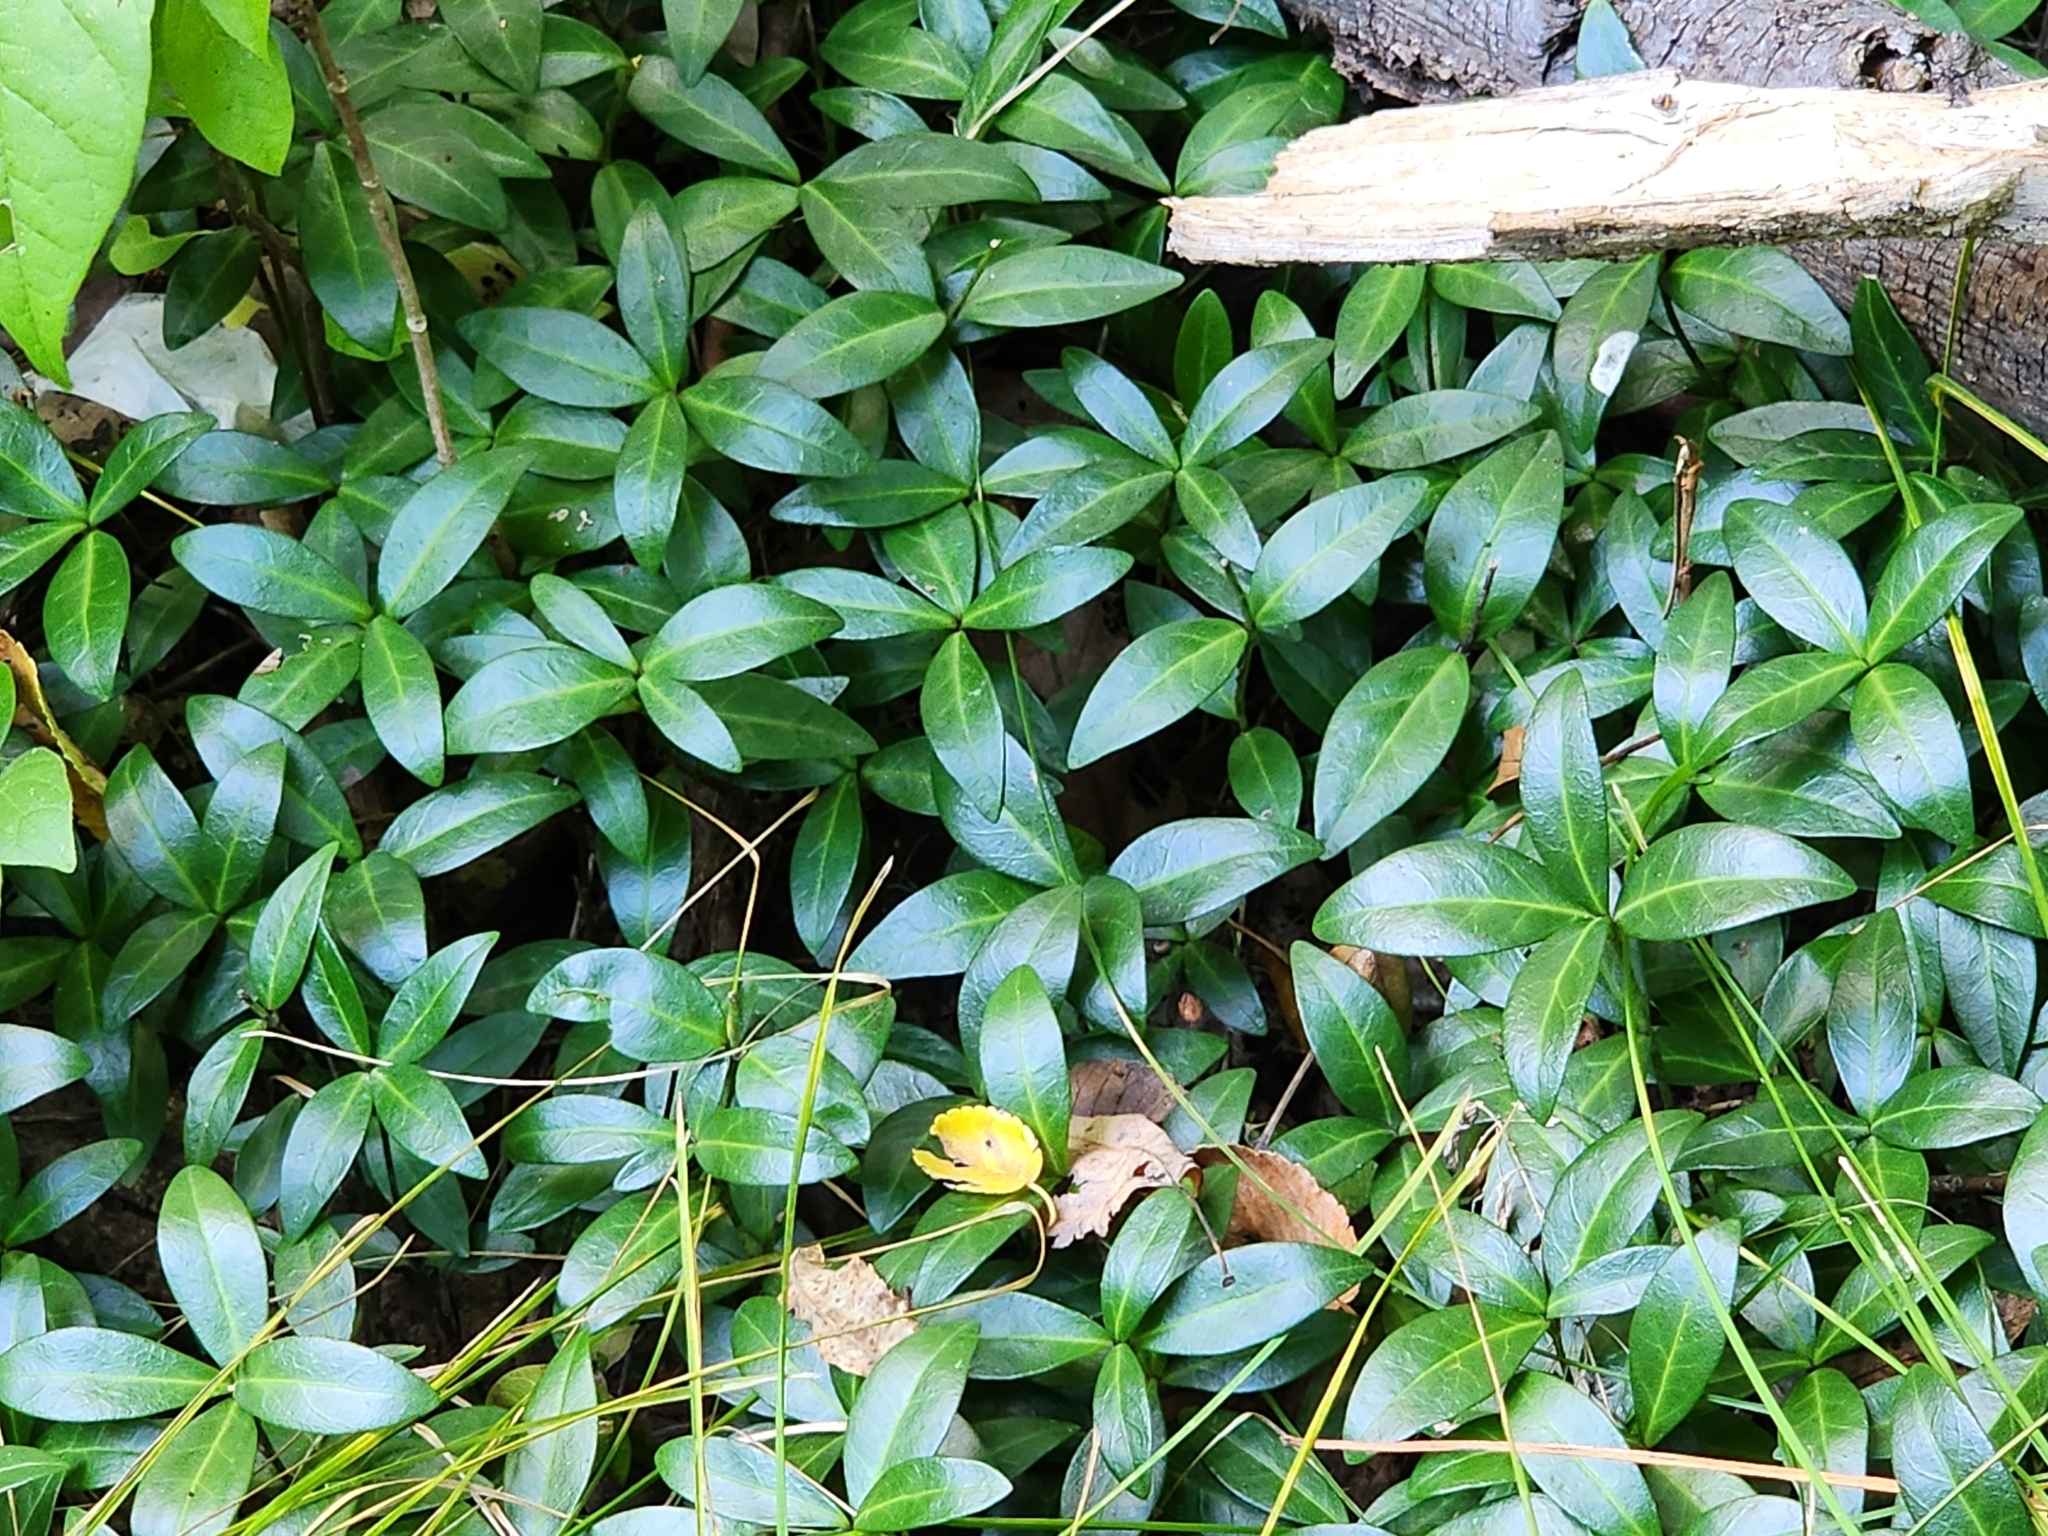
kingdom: Plantae
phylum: Tracheophyta
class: Magnoliopsida
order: Gentianales
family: Apocynaceae
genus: Vinca
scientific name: Vinca minor
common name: Lesser periwinkle
